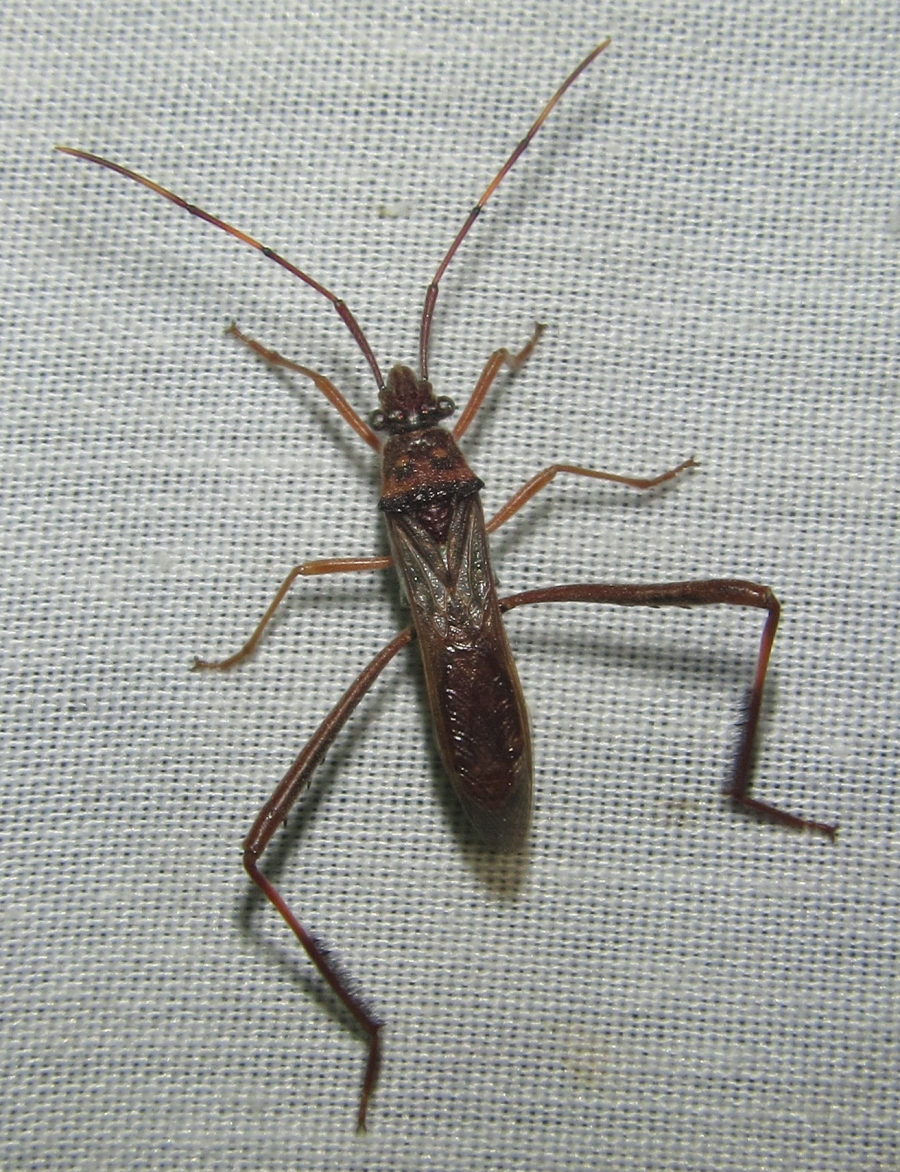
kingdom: Animalia
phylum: Arthropoda
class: Insecta
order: Hemiptera
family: Alydidae
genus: Hypselopus
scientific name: Hypselopus gigas
